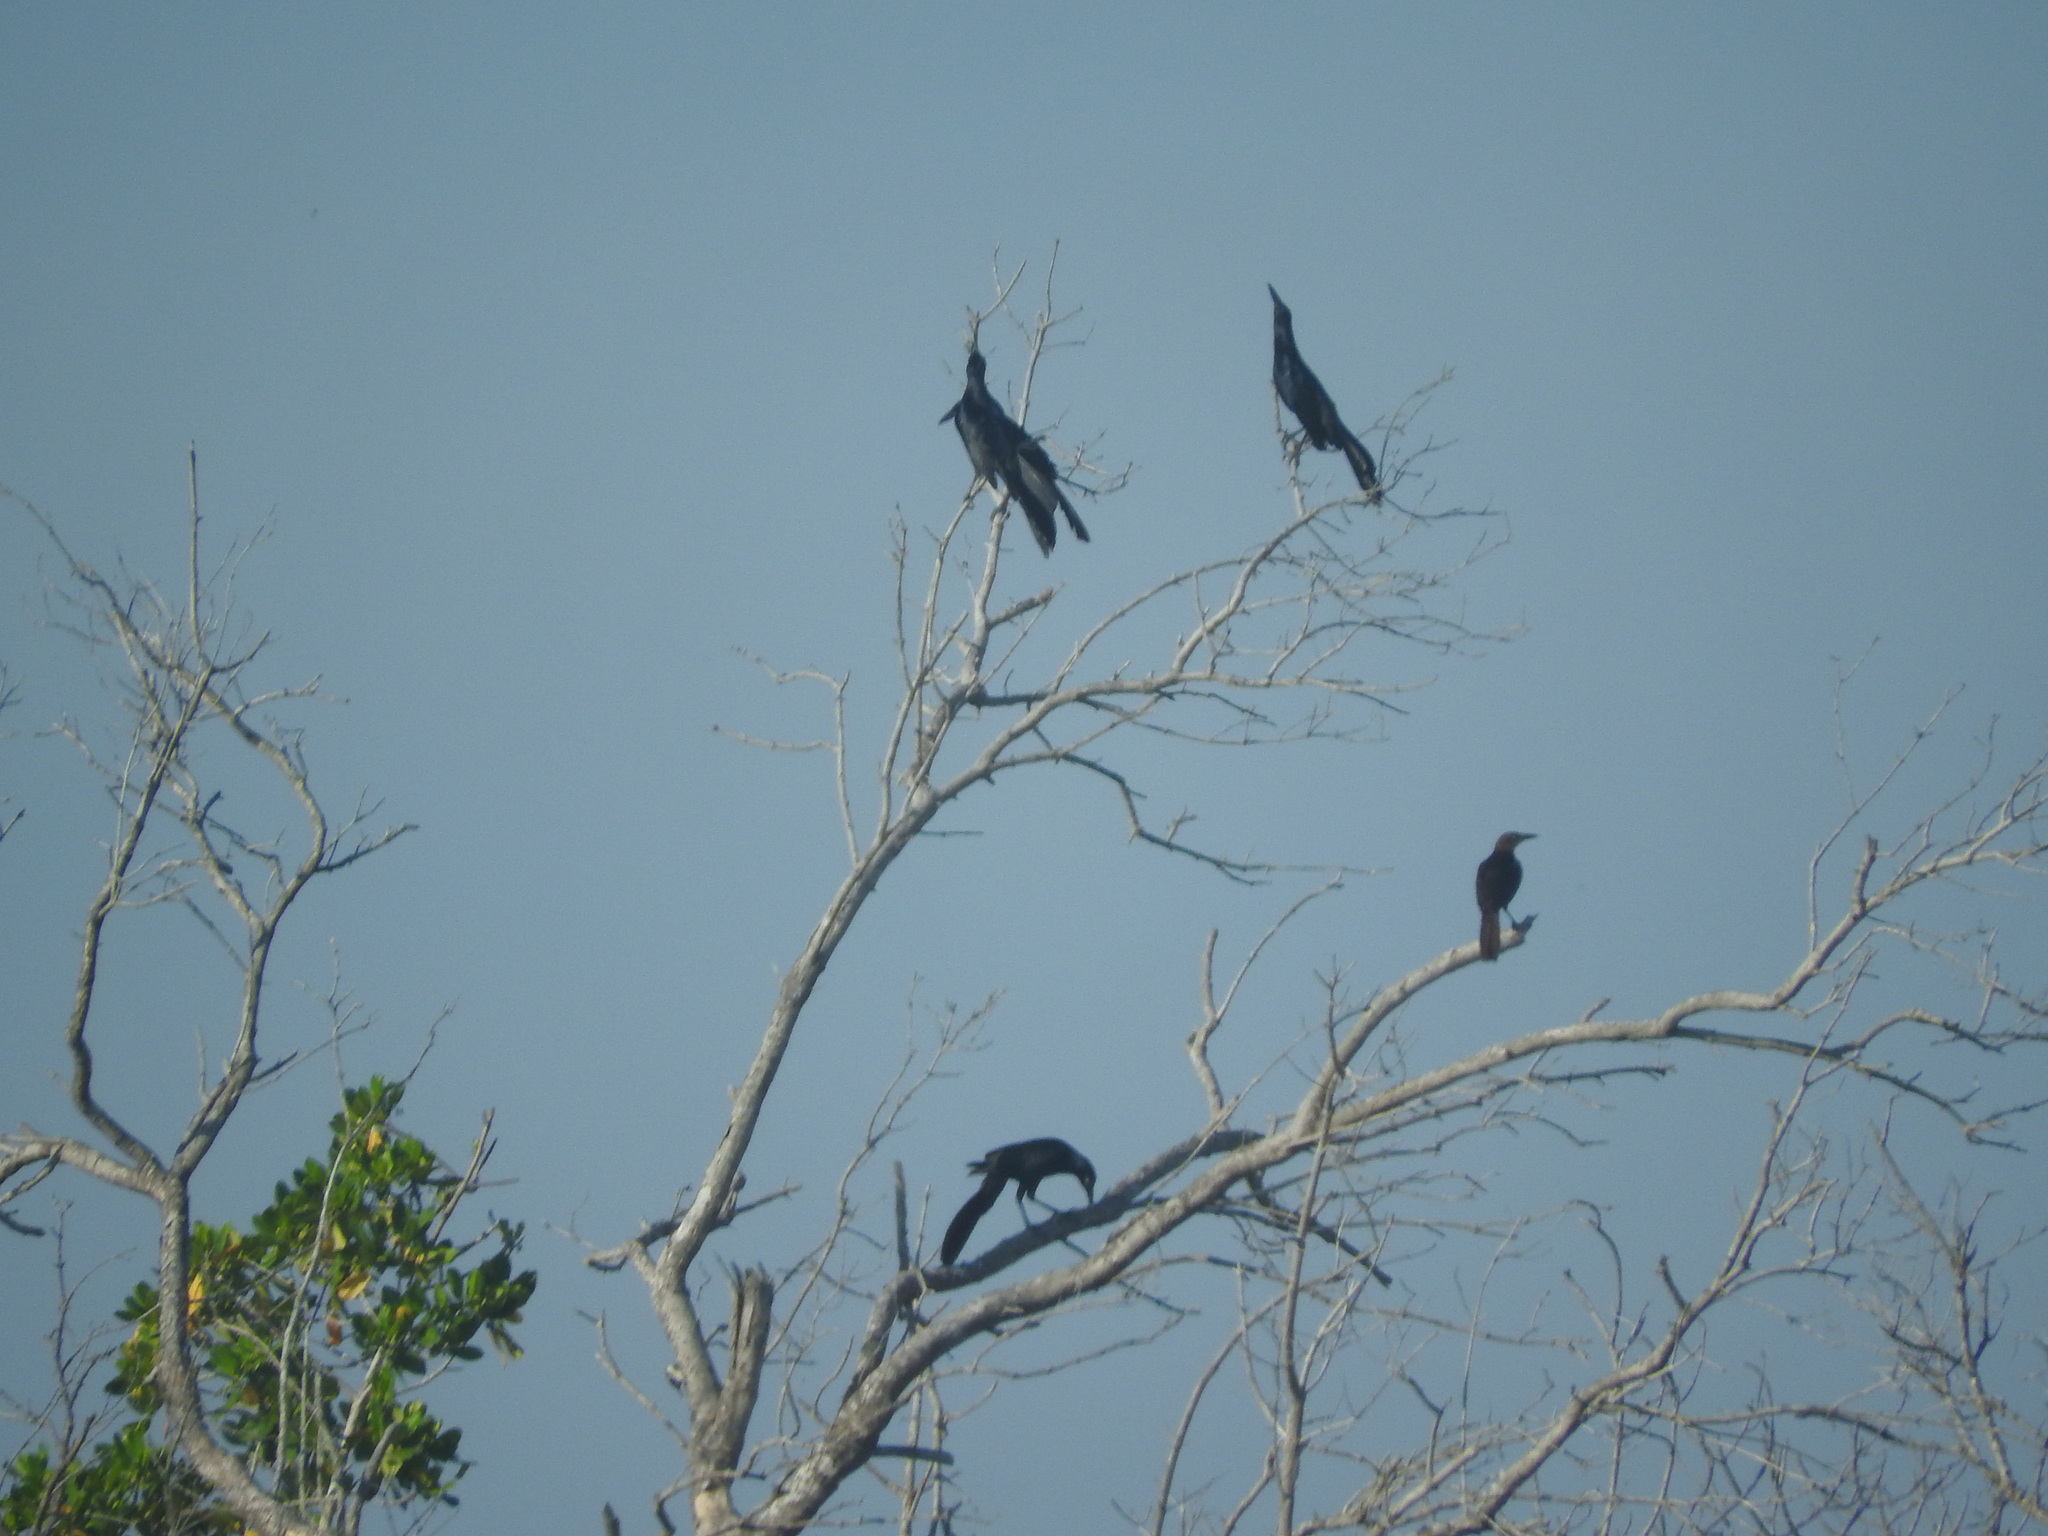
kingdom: Animalia
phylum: Chordata
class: Aves
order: Passeriformes
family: Icteridae
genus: Quiscalus
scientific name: Quiscalus mexicanus
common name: Great-tailed grackle
